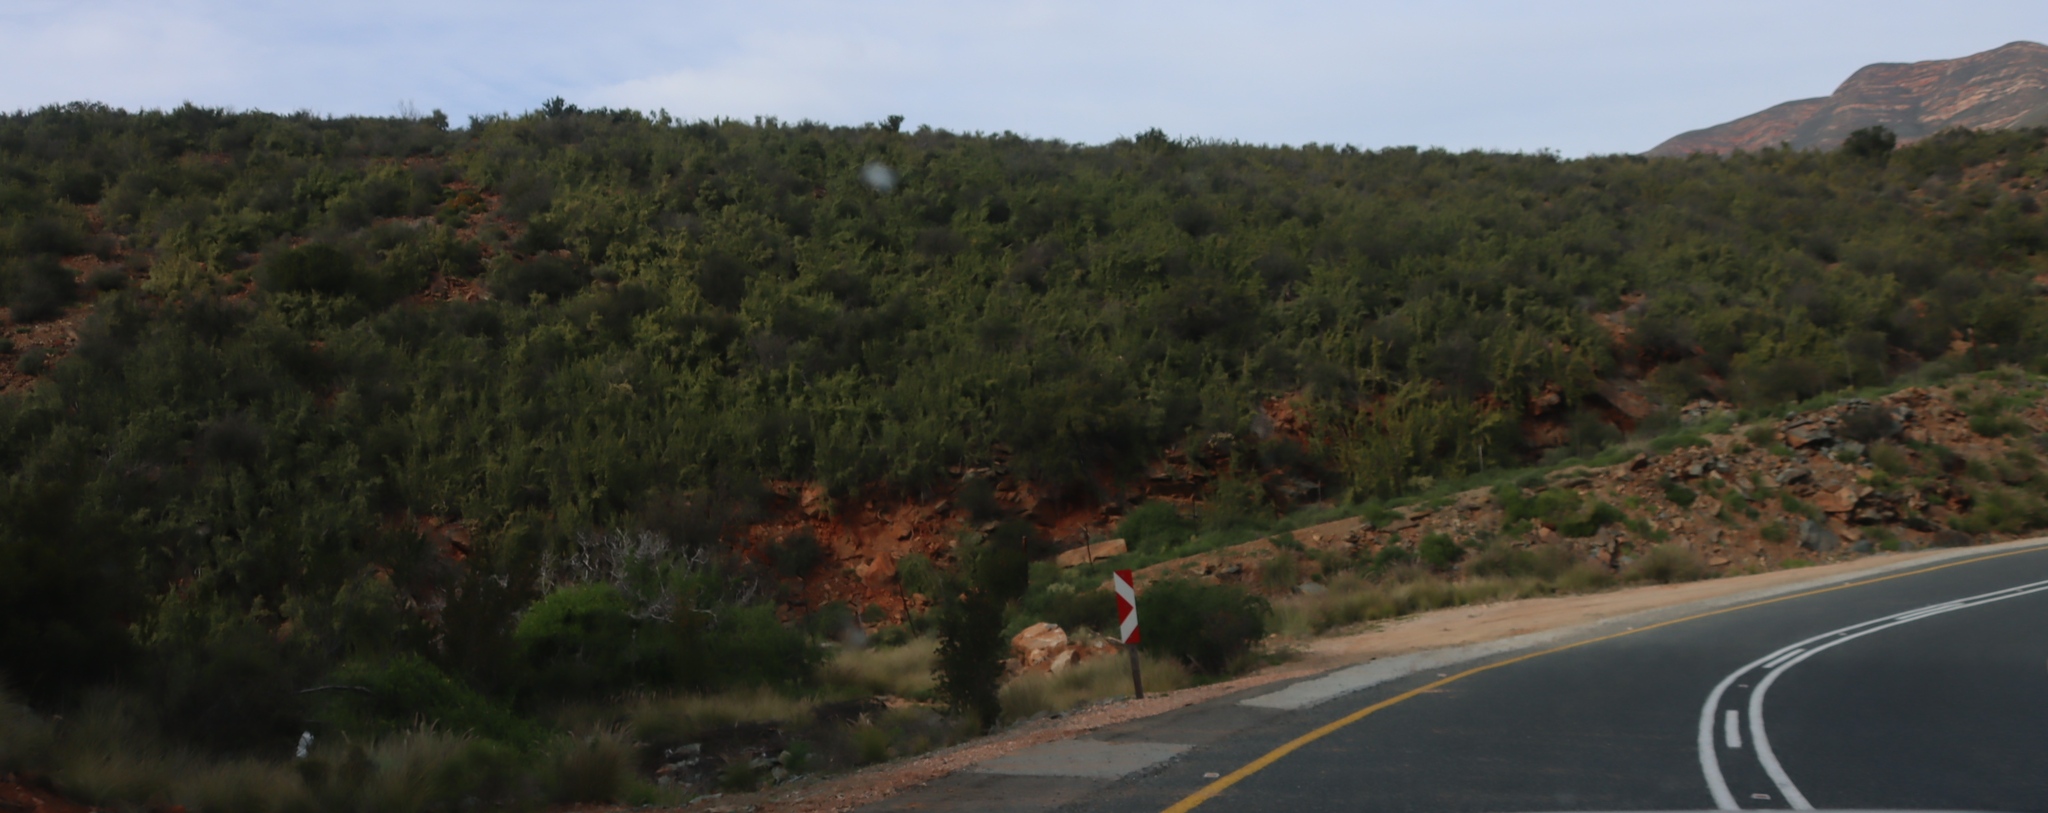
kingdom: Plantae
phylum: Tracheophyta
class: Magnoliopsida
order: Caryophyllales
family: Didiereaceae
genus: Portulacaria
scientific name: Portulacaria afra
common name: Elephant-bush
